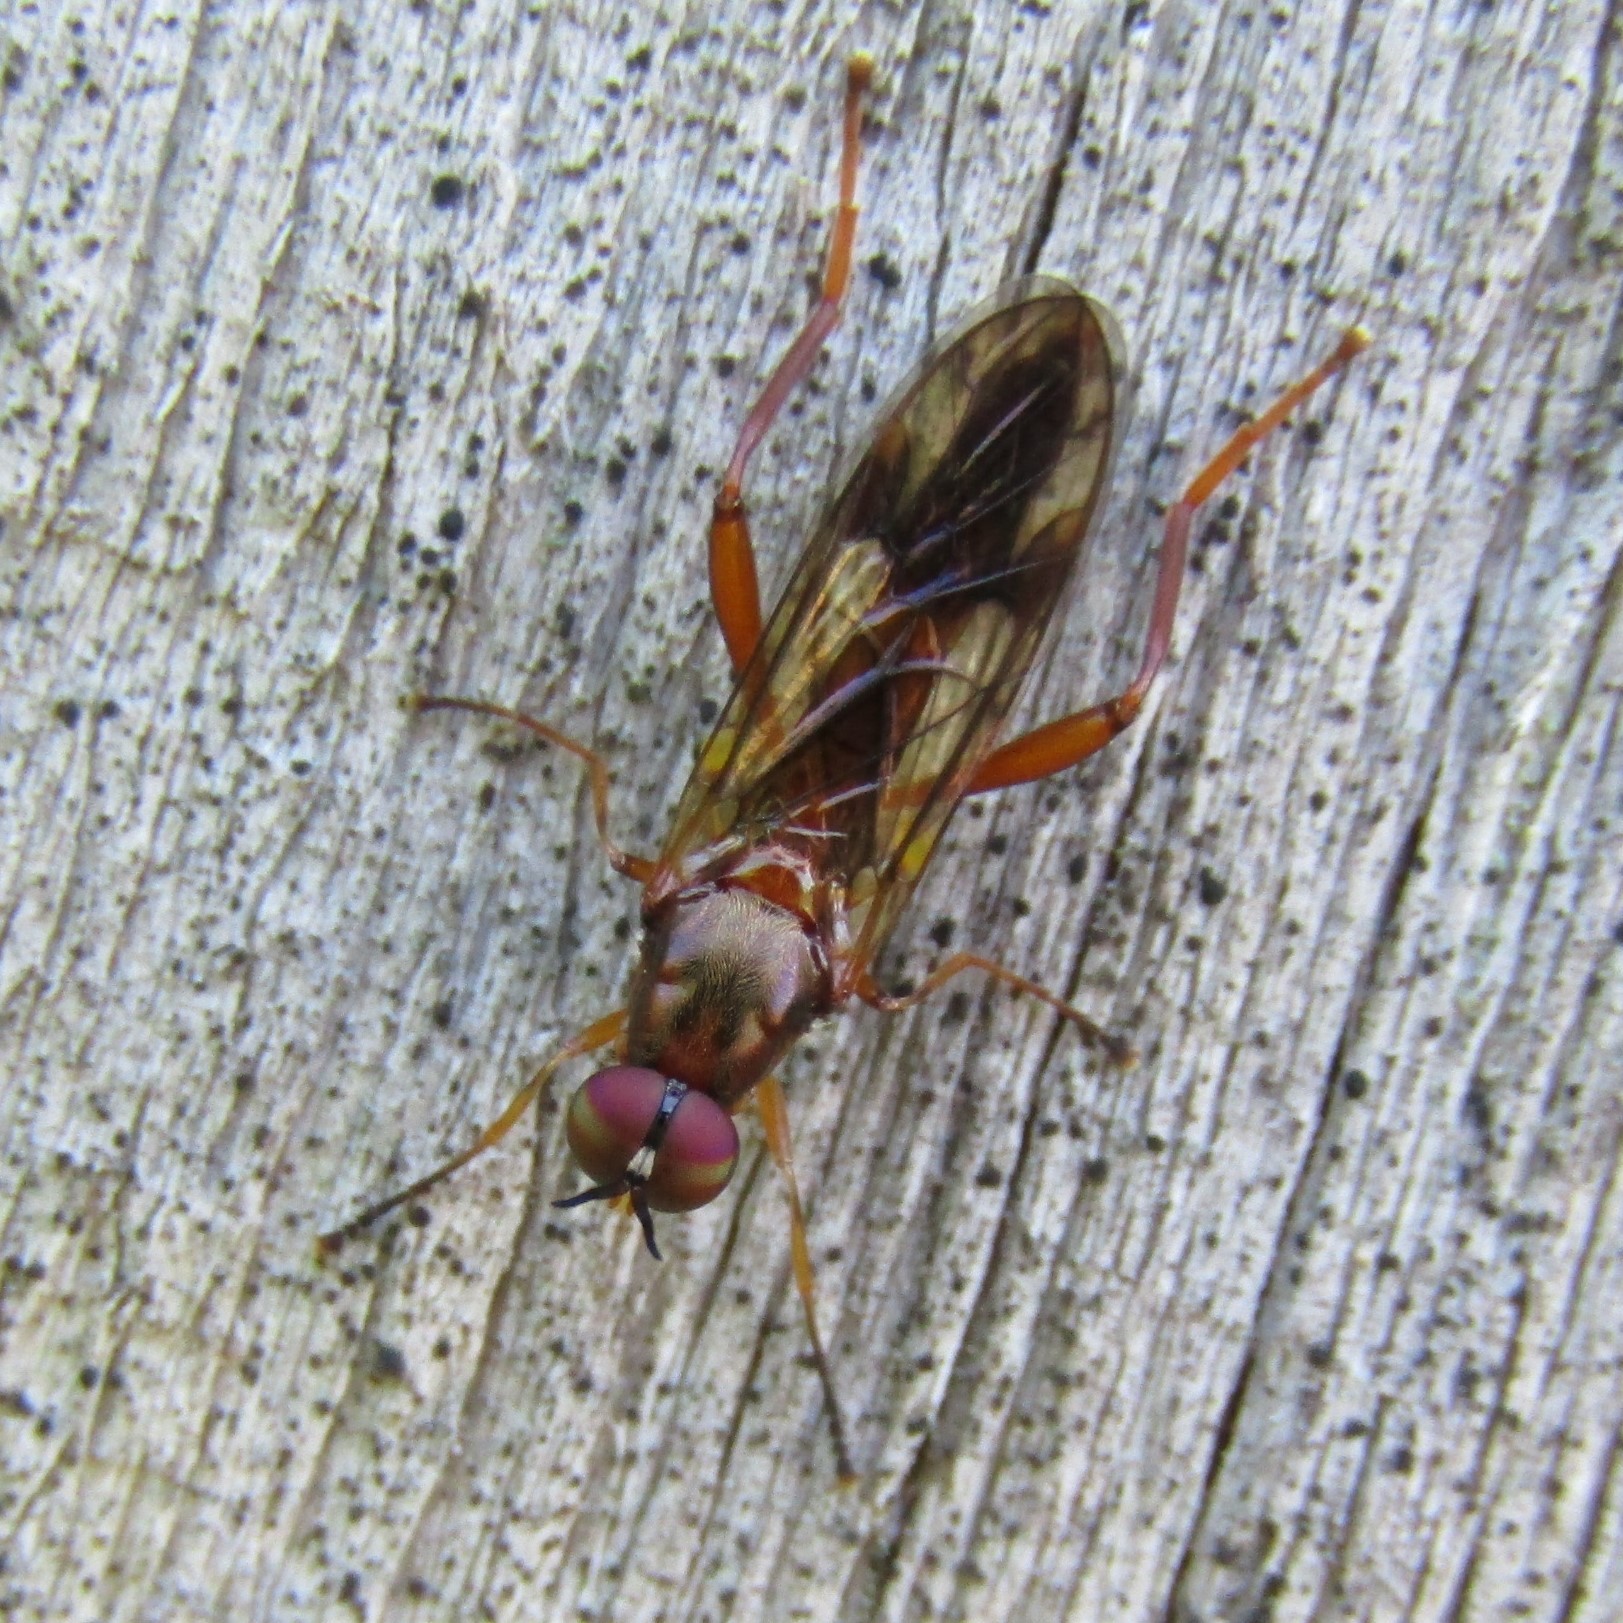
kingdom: Animalia
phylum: Arthropoda
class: Insecta
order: Diptera
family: Stratiomyidae
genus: Benhamyia
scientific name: Benhamyia straznitzkii
